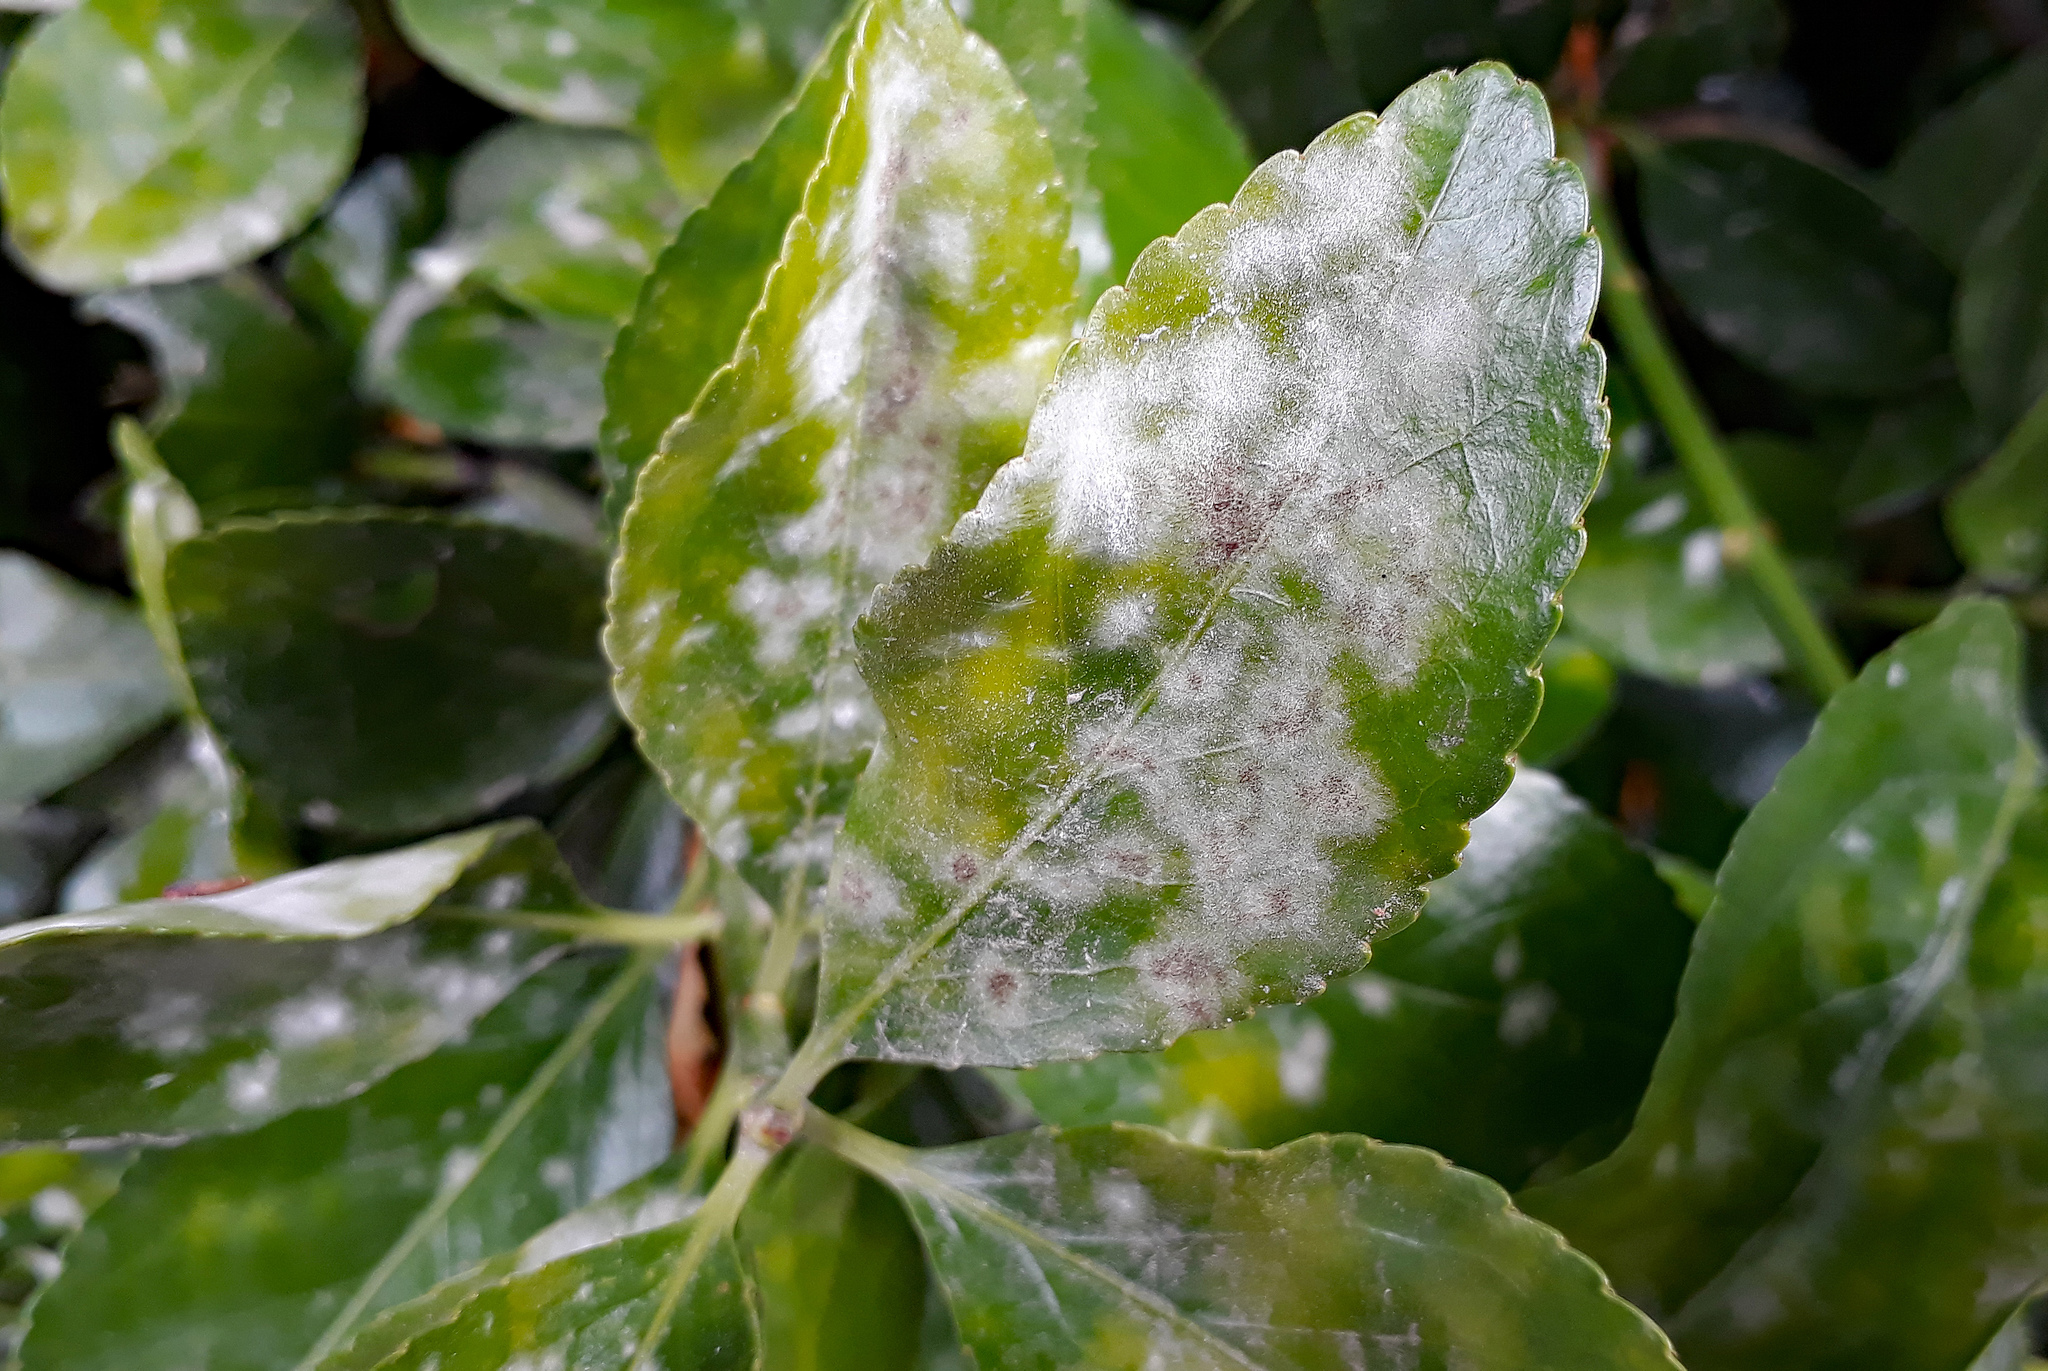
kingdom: Fungi
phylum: Ascomycota
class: Leotiomycetes
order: Helotiales
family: Erysiphaceae
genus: Erysiphe
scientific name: Erysiphe euonymicola
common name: Spindletree mildew
